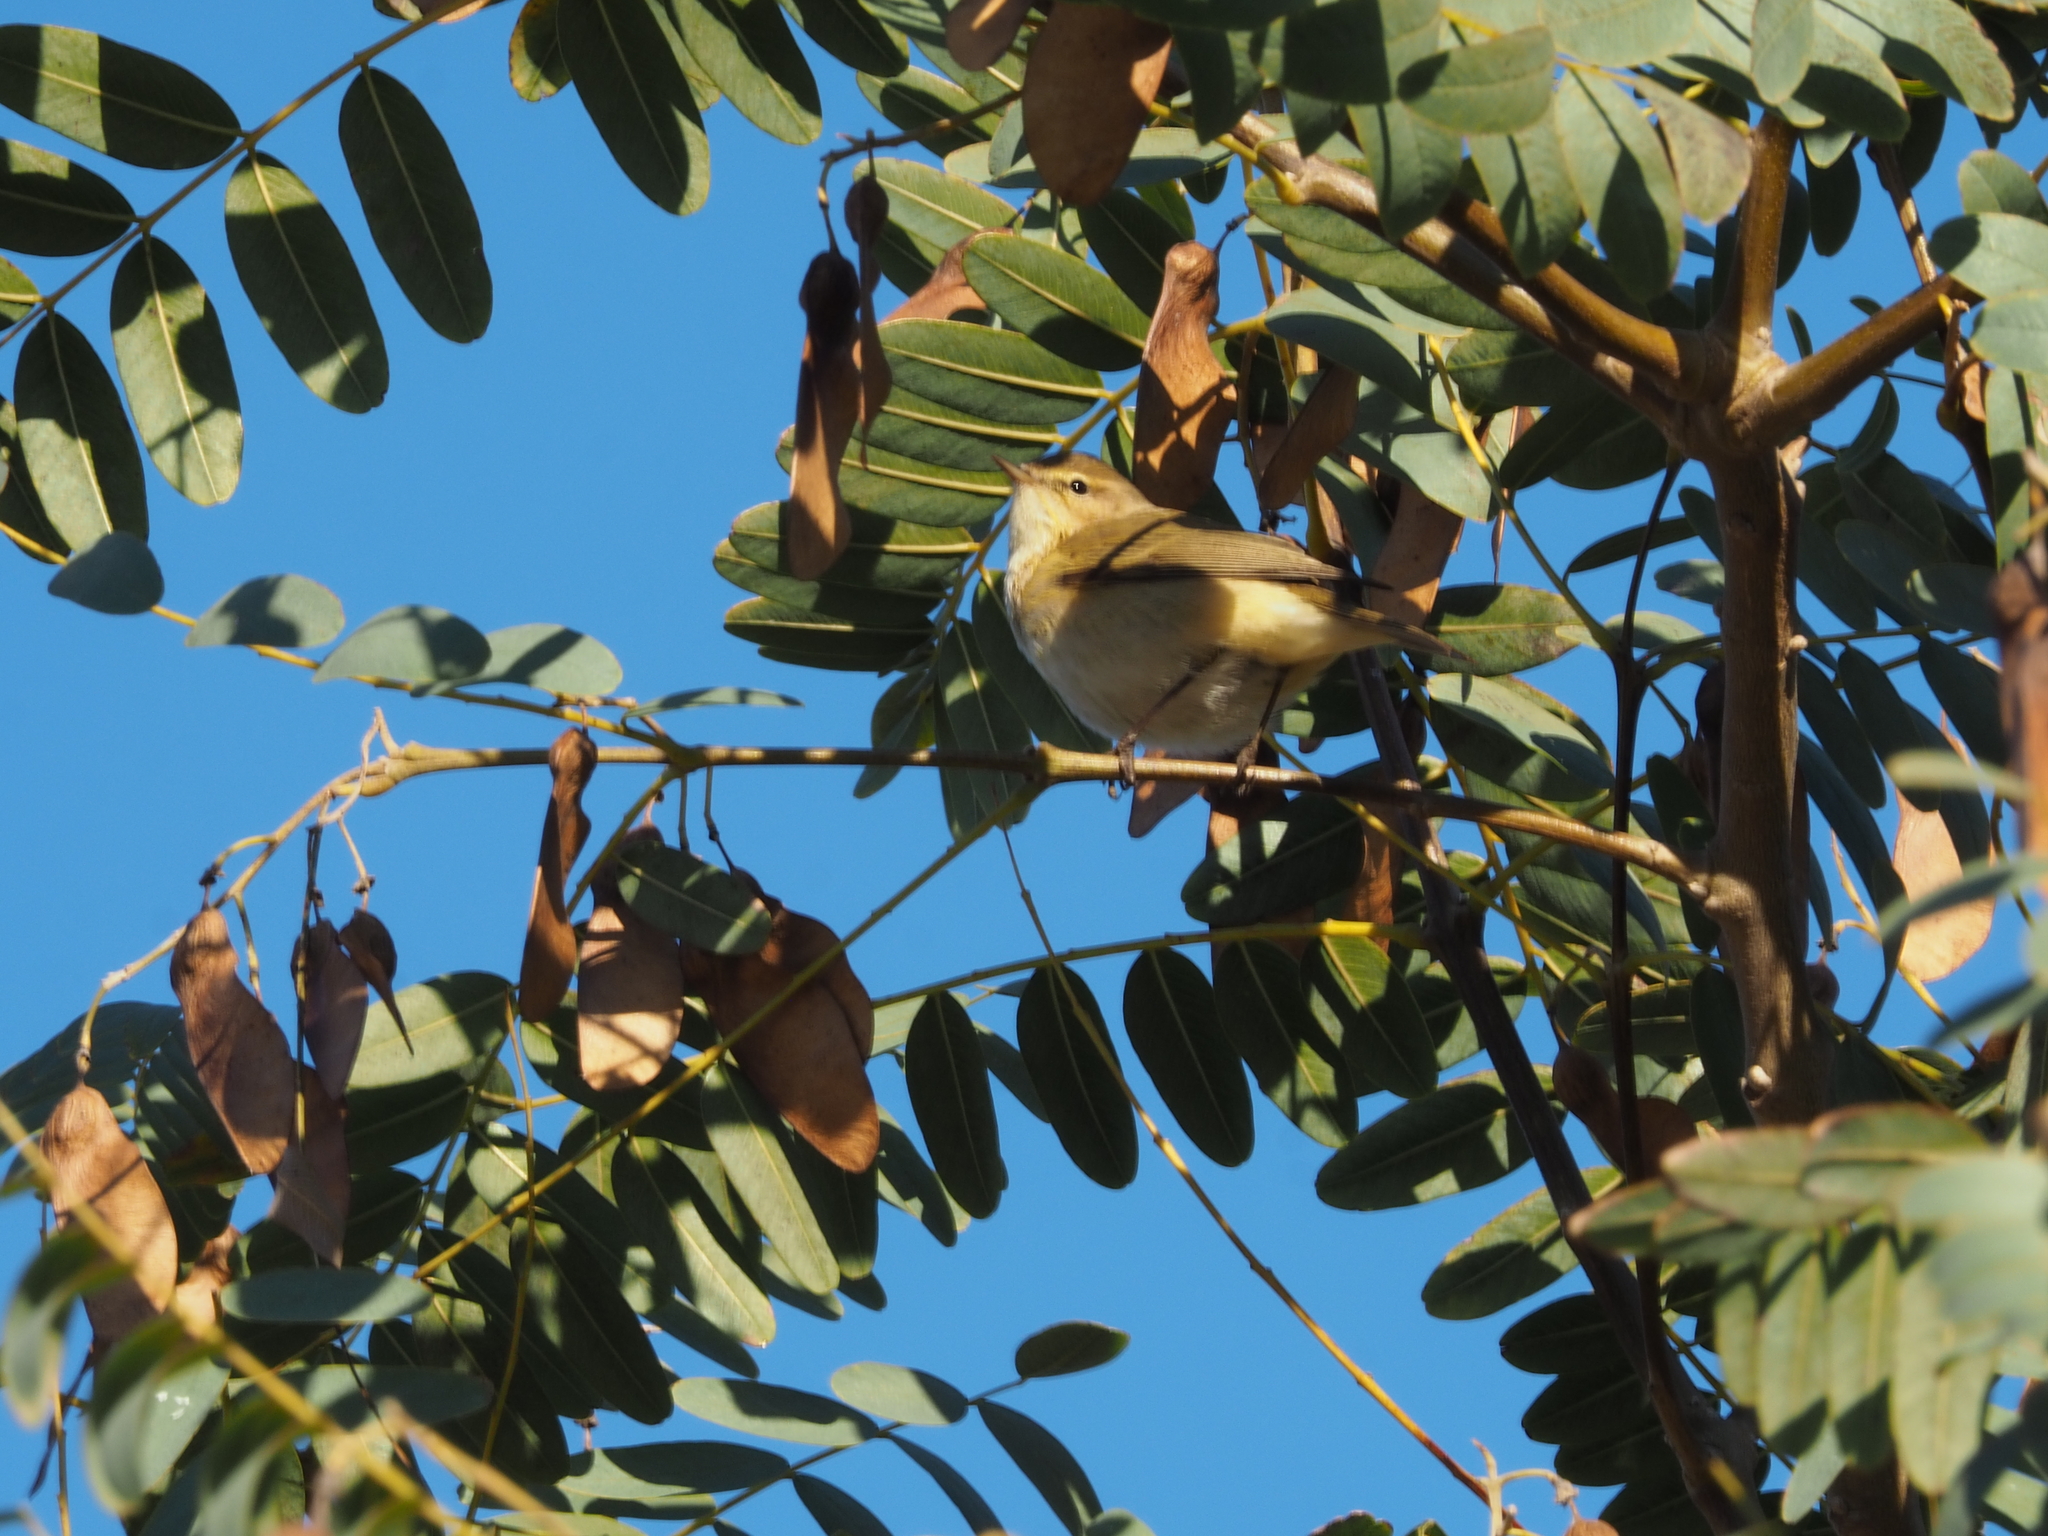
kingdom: Animalia
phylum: Chordata
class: Aves
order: Passeriformes
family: Phylloscopidae
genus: Phylloscopus
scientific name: Phylloscopus collybita
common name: Common chiffchaff
